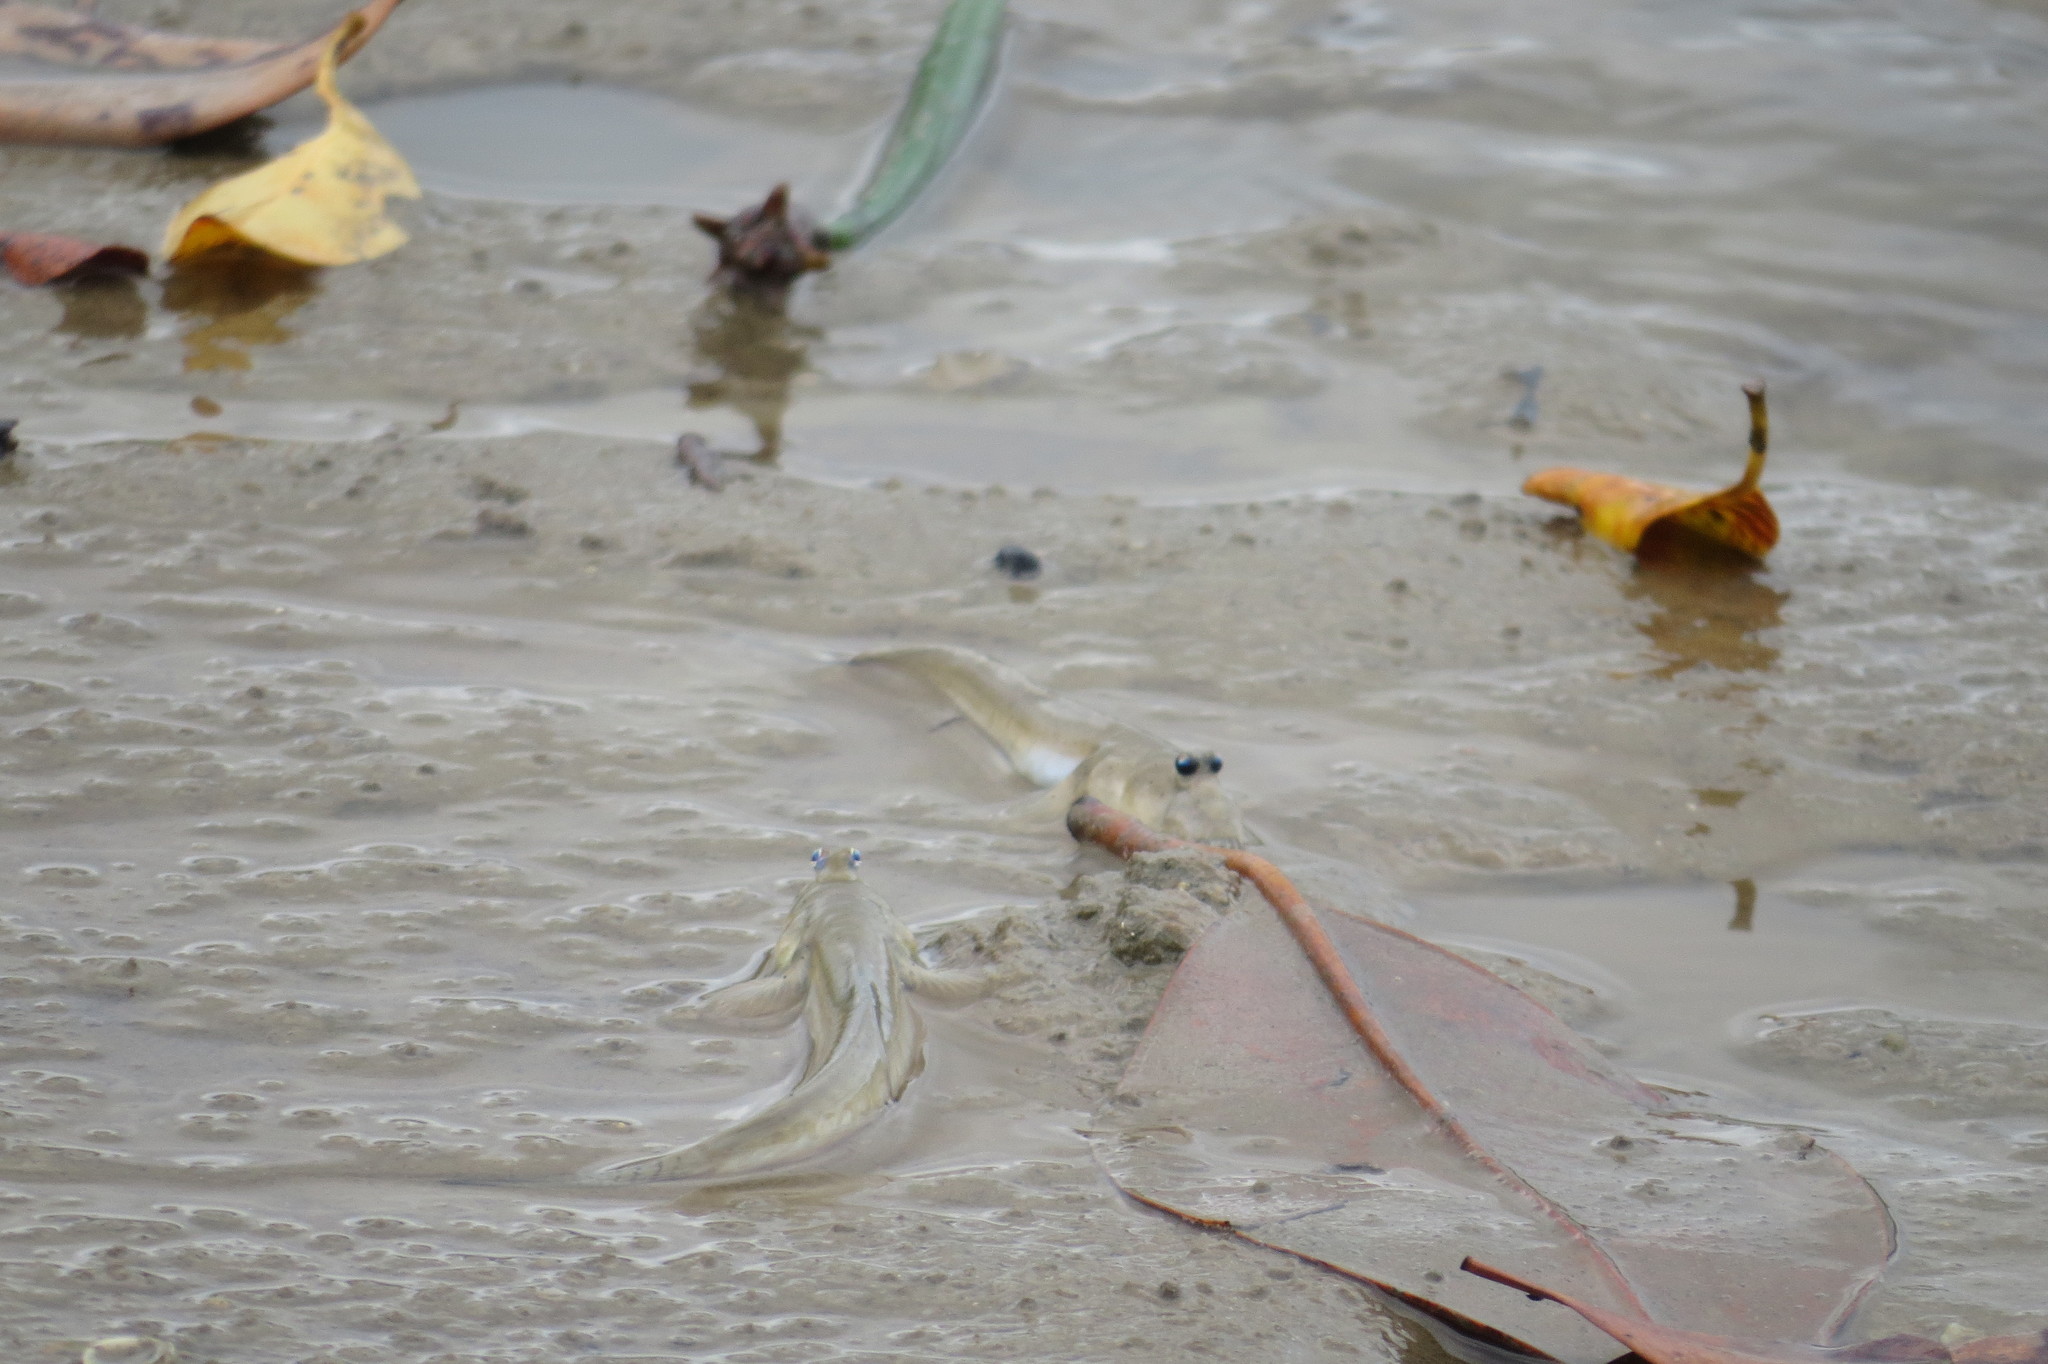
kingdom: Animalia
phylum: Chordata
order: Perciformes
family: Gobiidae
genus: Scartelaos
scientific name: Scartelaos histophorus
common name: Walking goby
